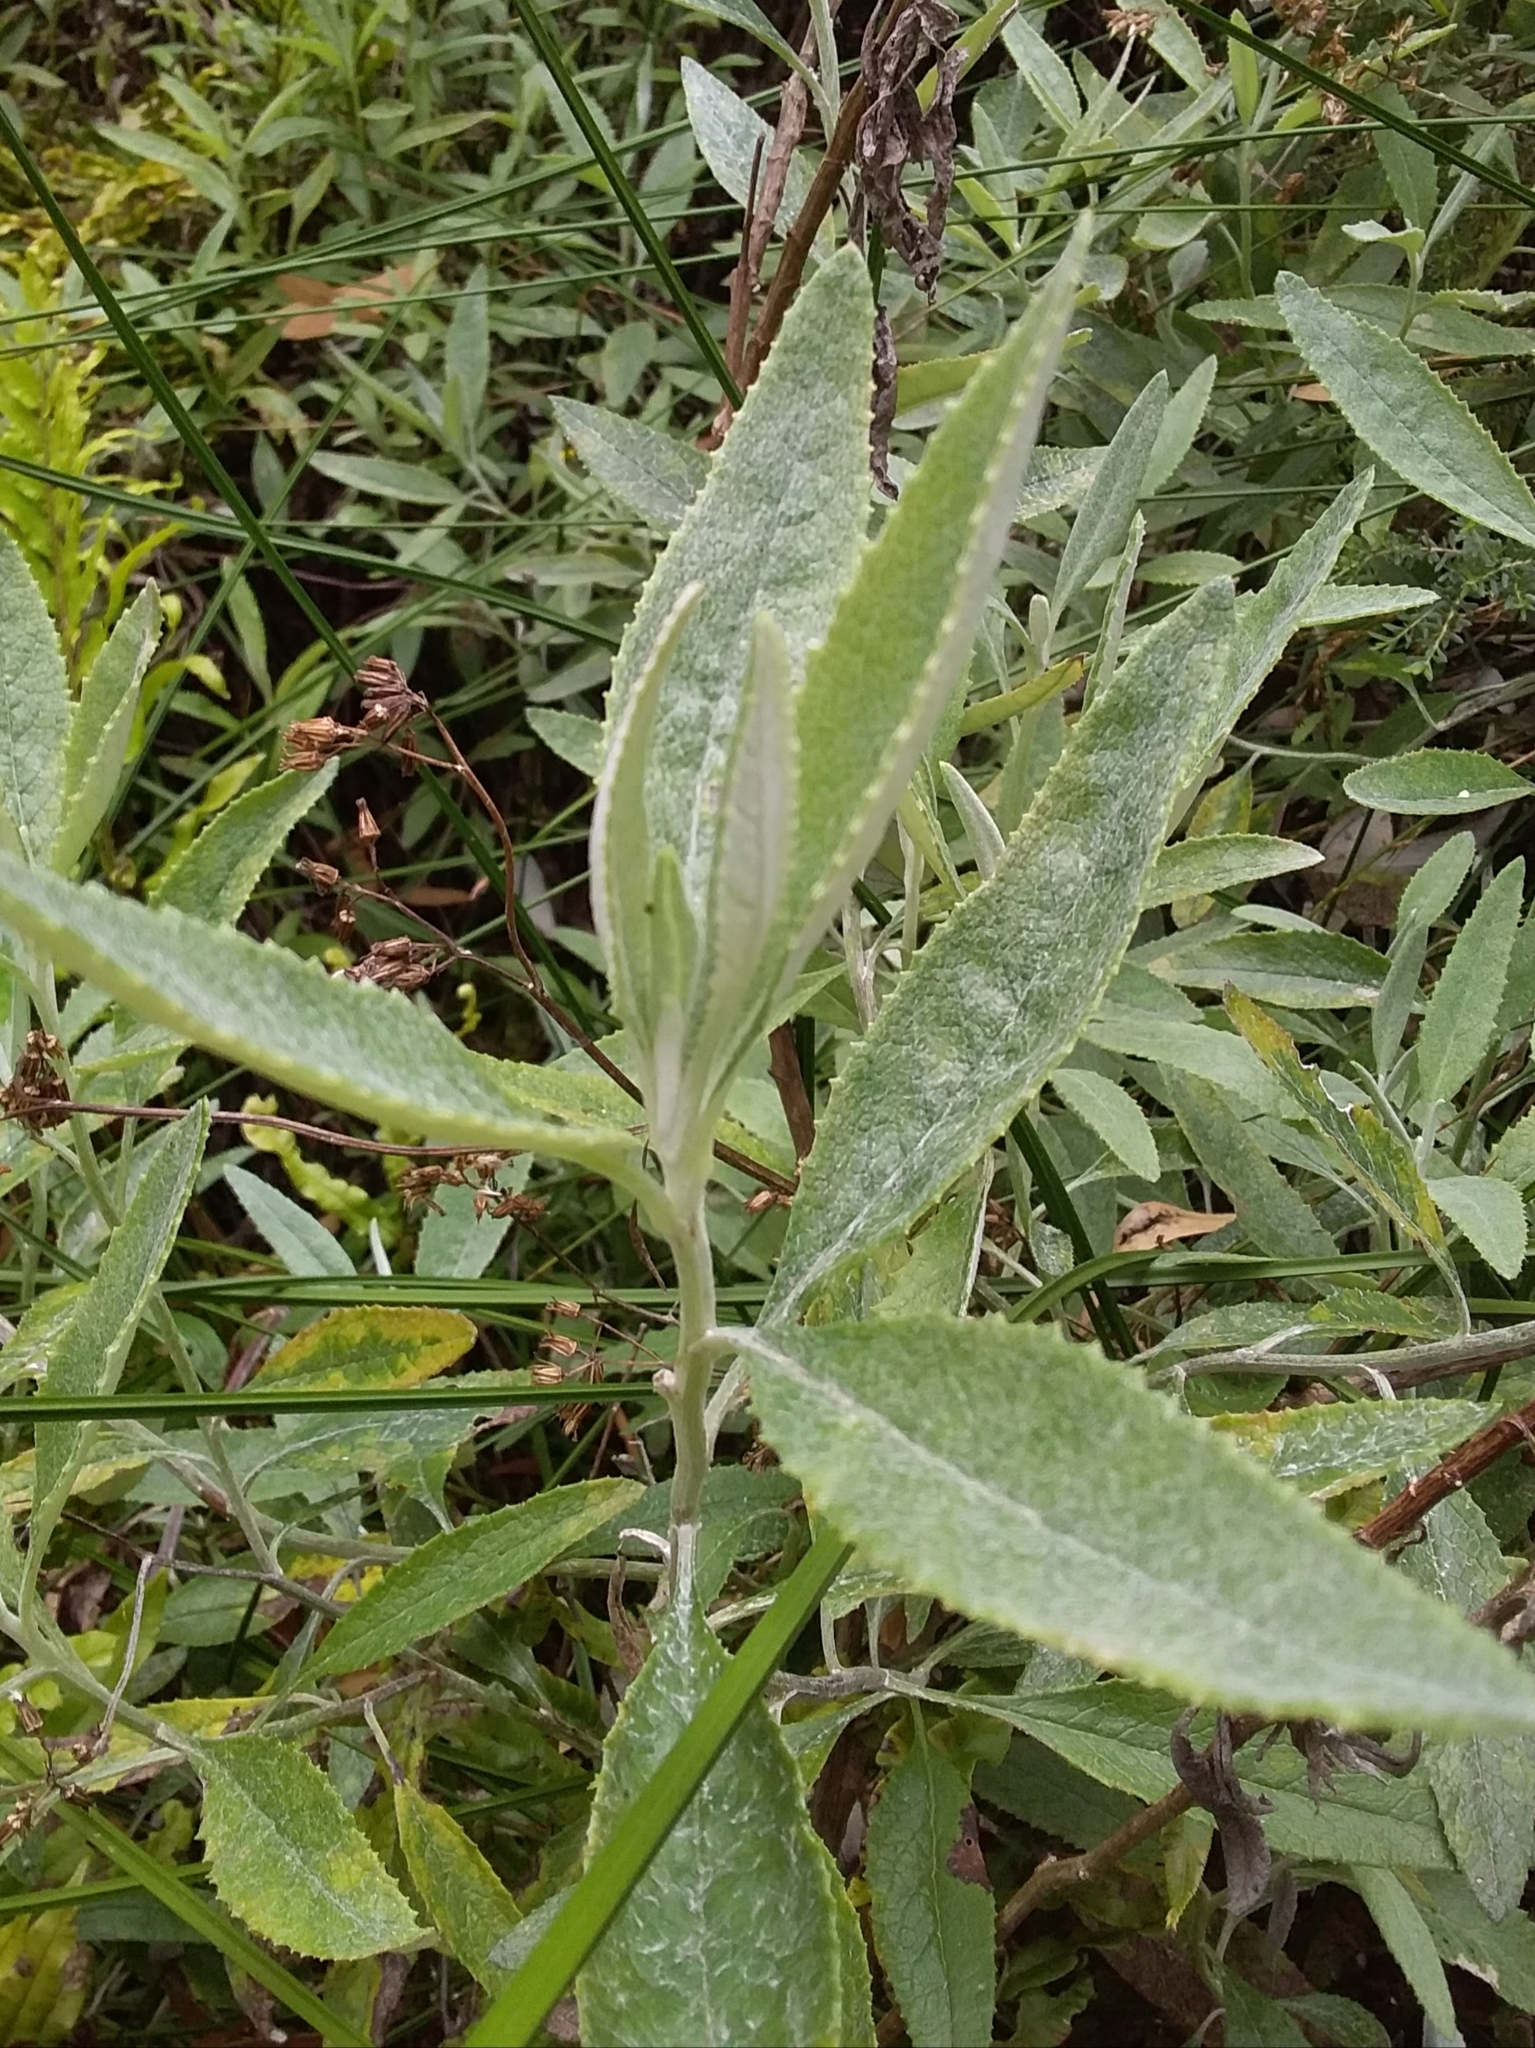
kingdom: Plantae
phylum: Tracheophyta
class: Magnoliopsida
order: Asterales
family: Asteraceae
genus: Senecio
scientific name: Senecio hypoleucus
